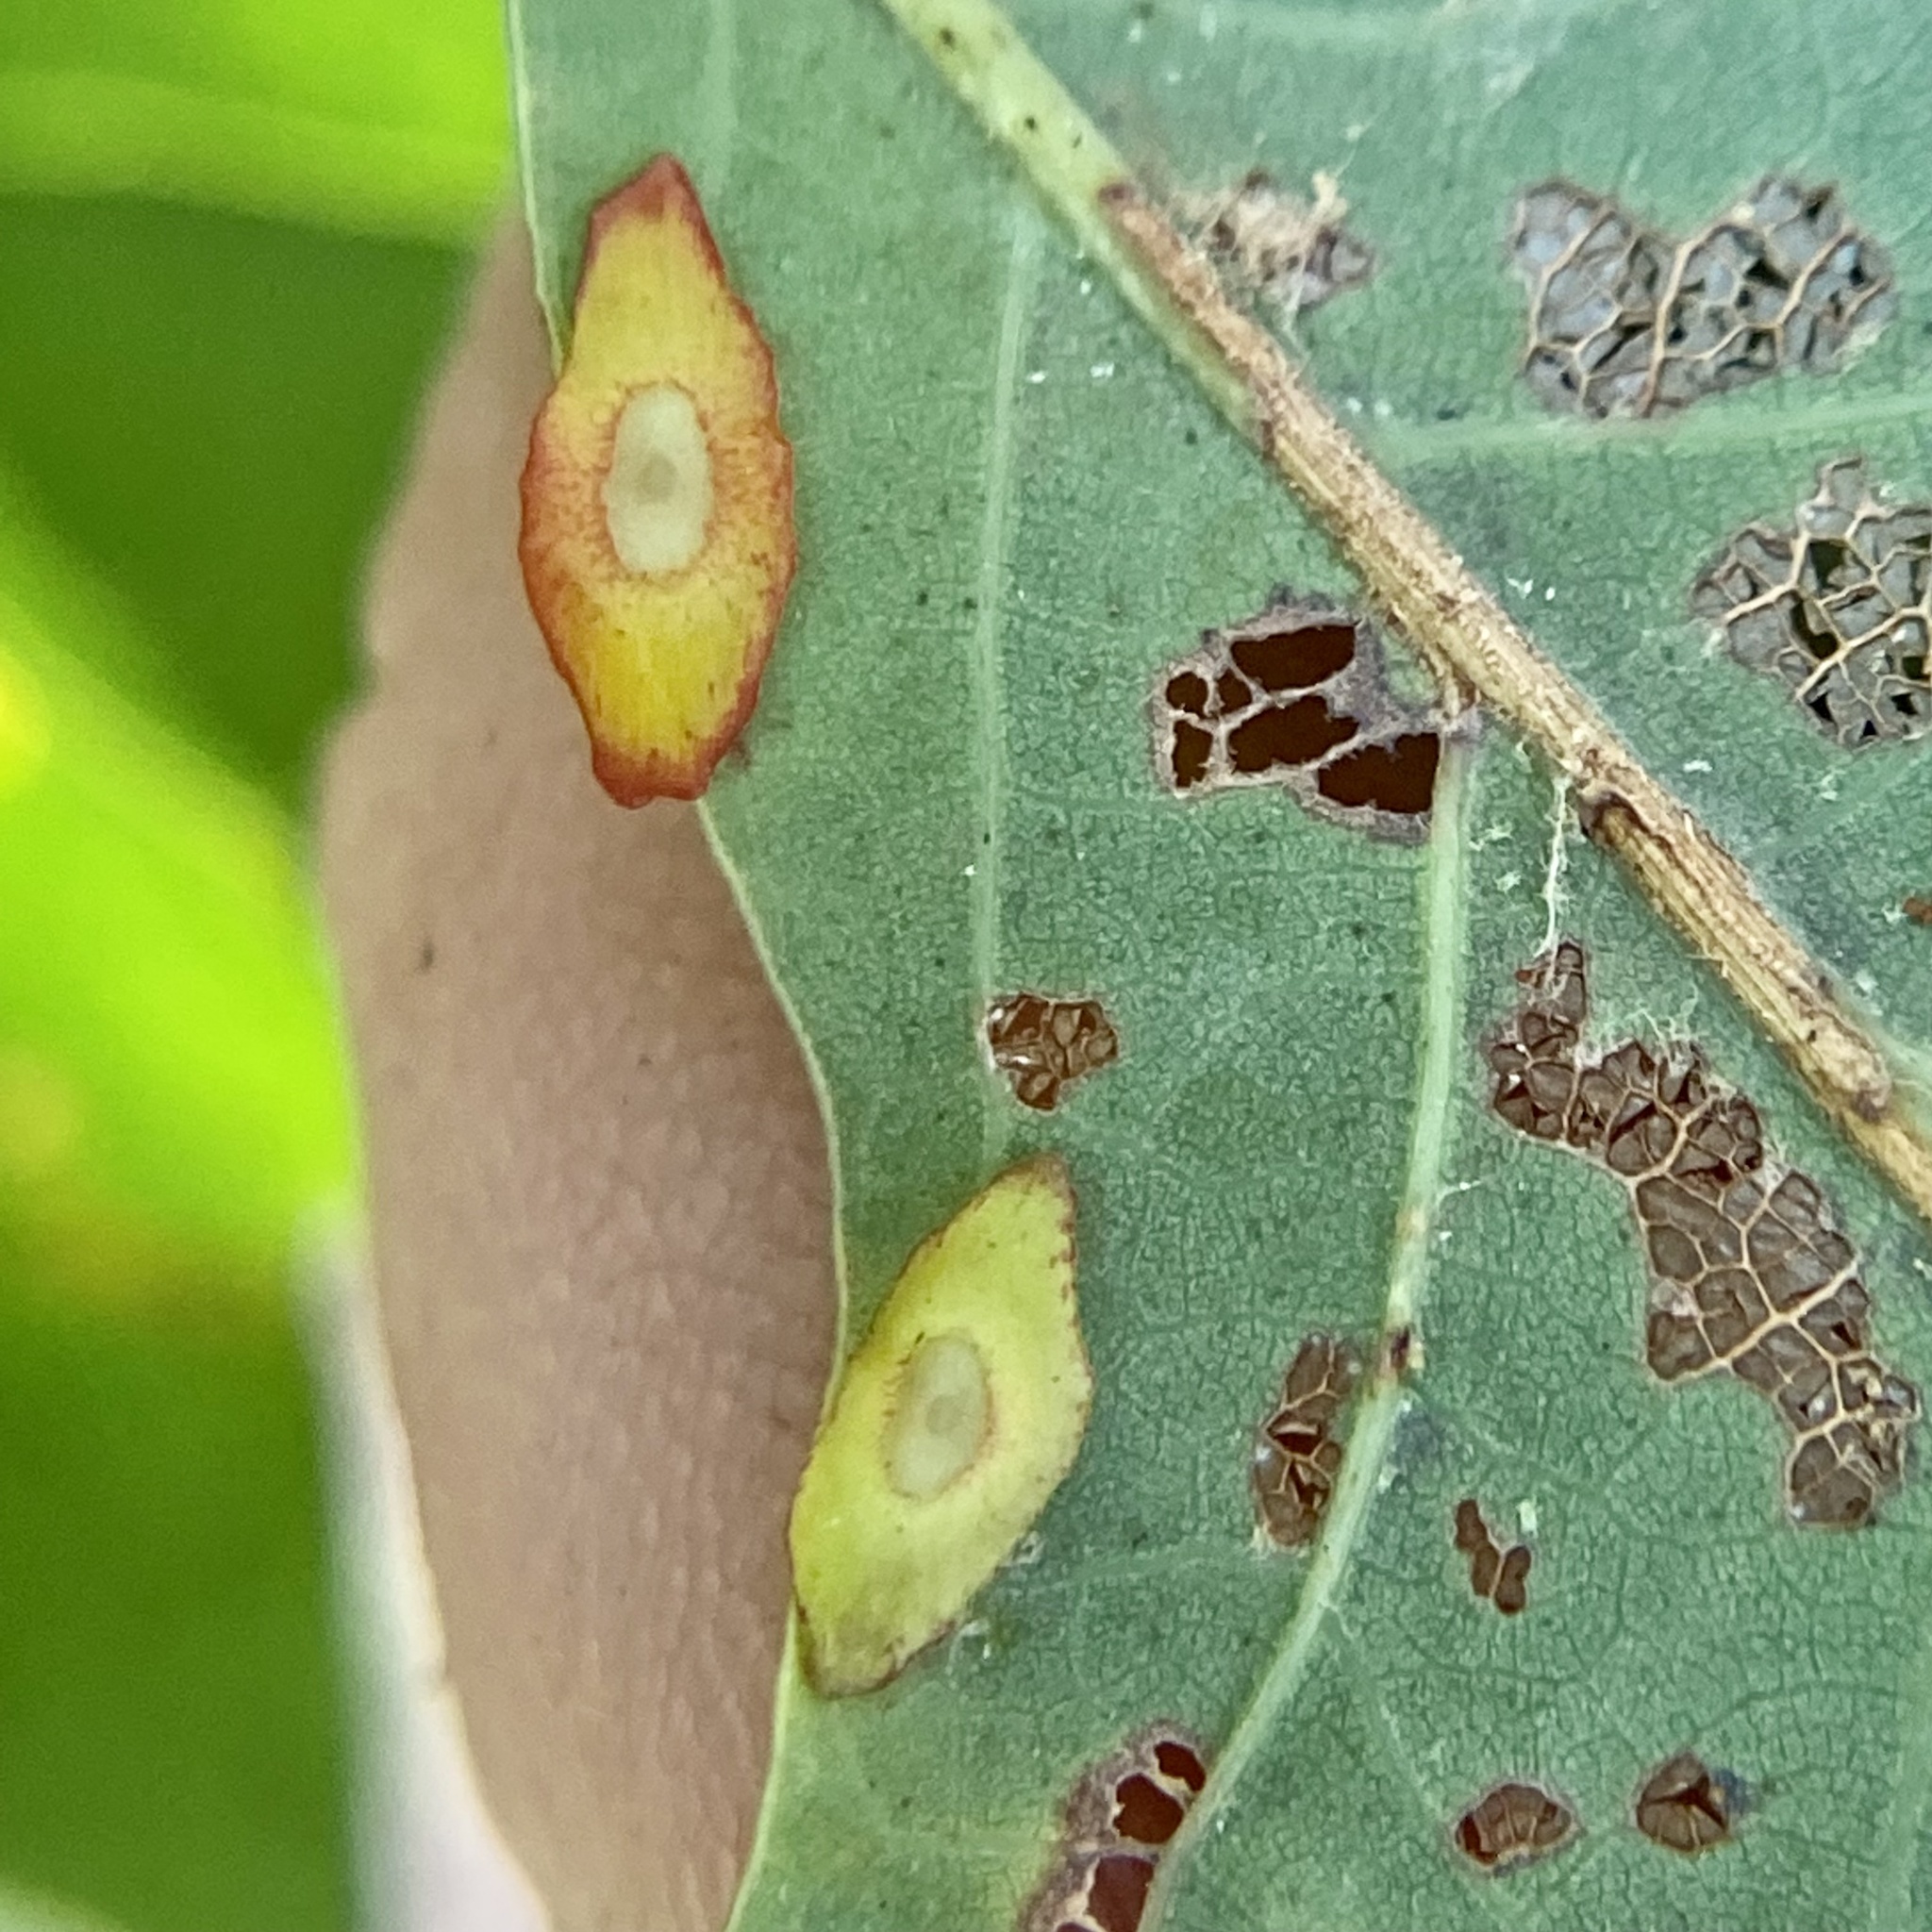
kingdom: Animalia
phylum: Arthropoda
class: Insecta
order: Hymenoptera
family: Cynipidae
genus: Phylloteras
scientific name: Phylloteras
